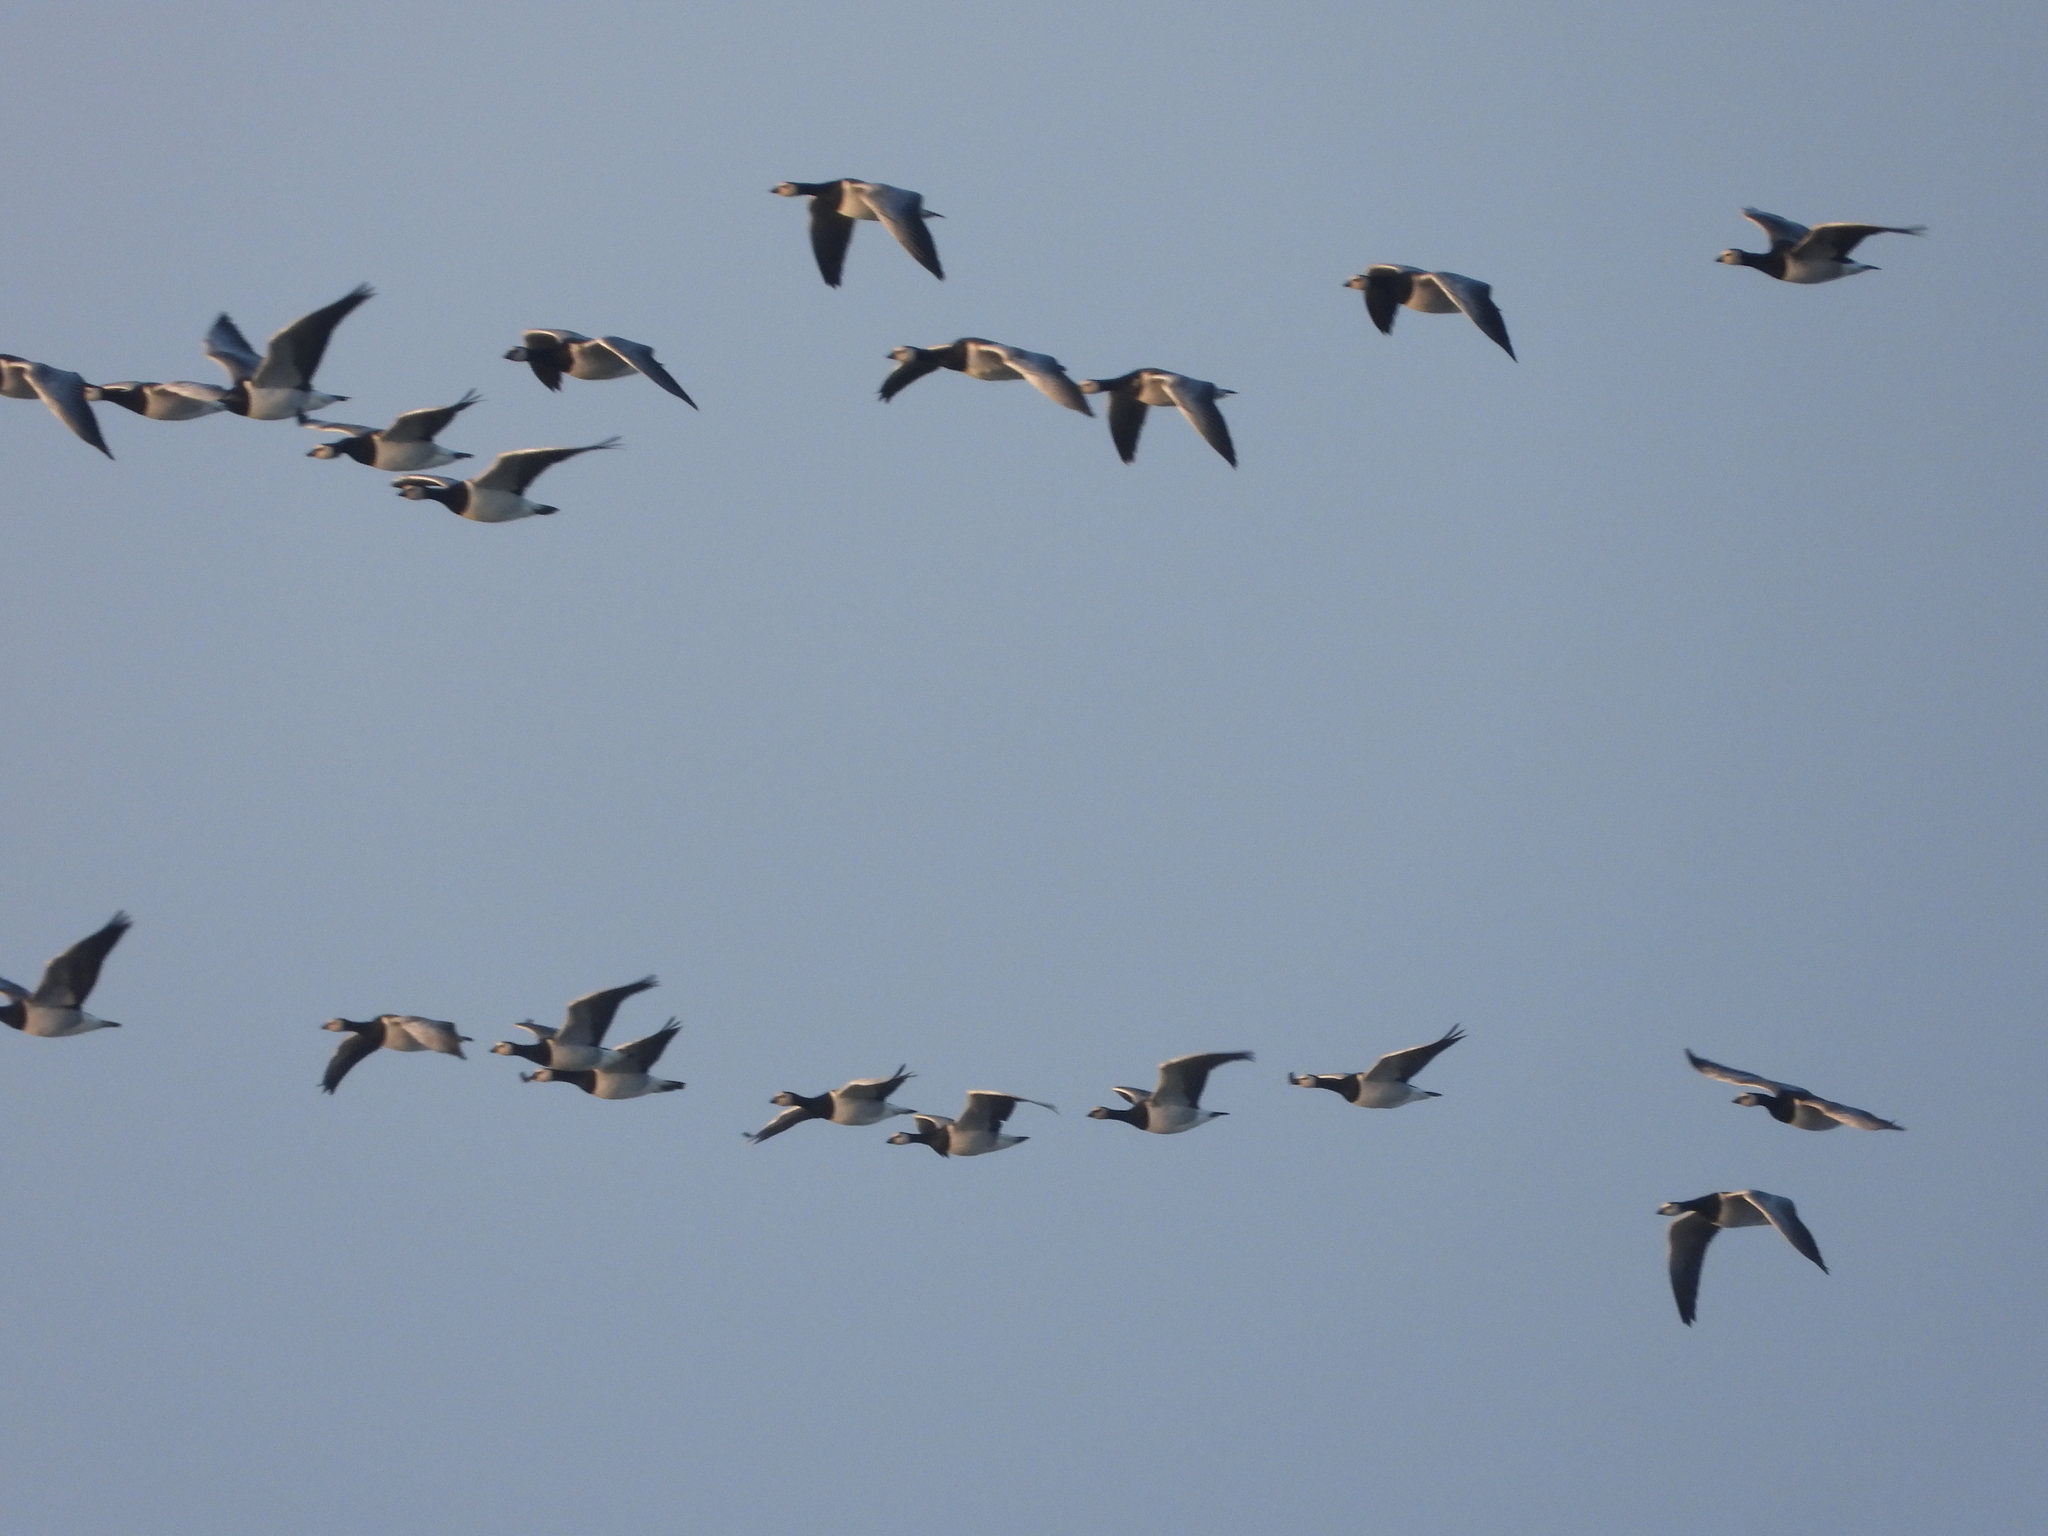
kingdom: Animalia
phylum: Chordata
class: Aves
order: Anseriformes
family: Anatidae
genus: Branta
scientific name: Branta leucopsis
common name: Barnacle goose
